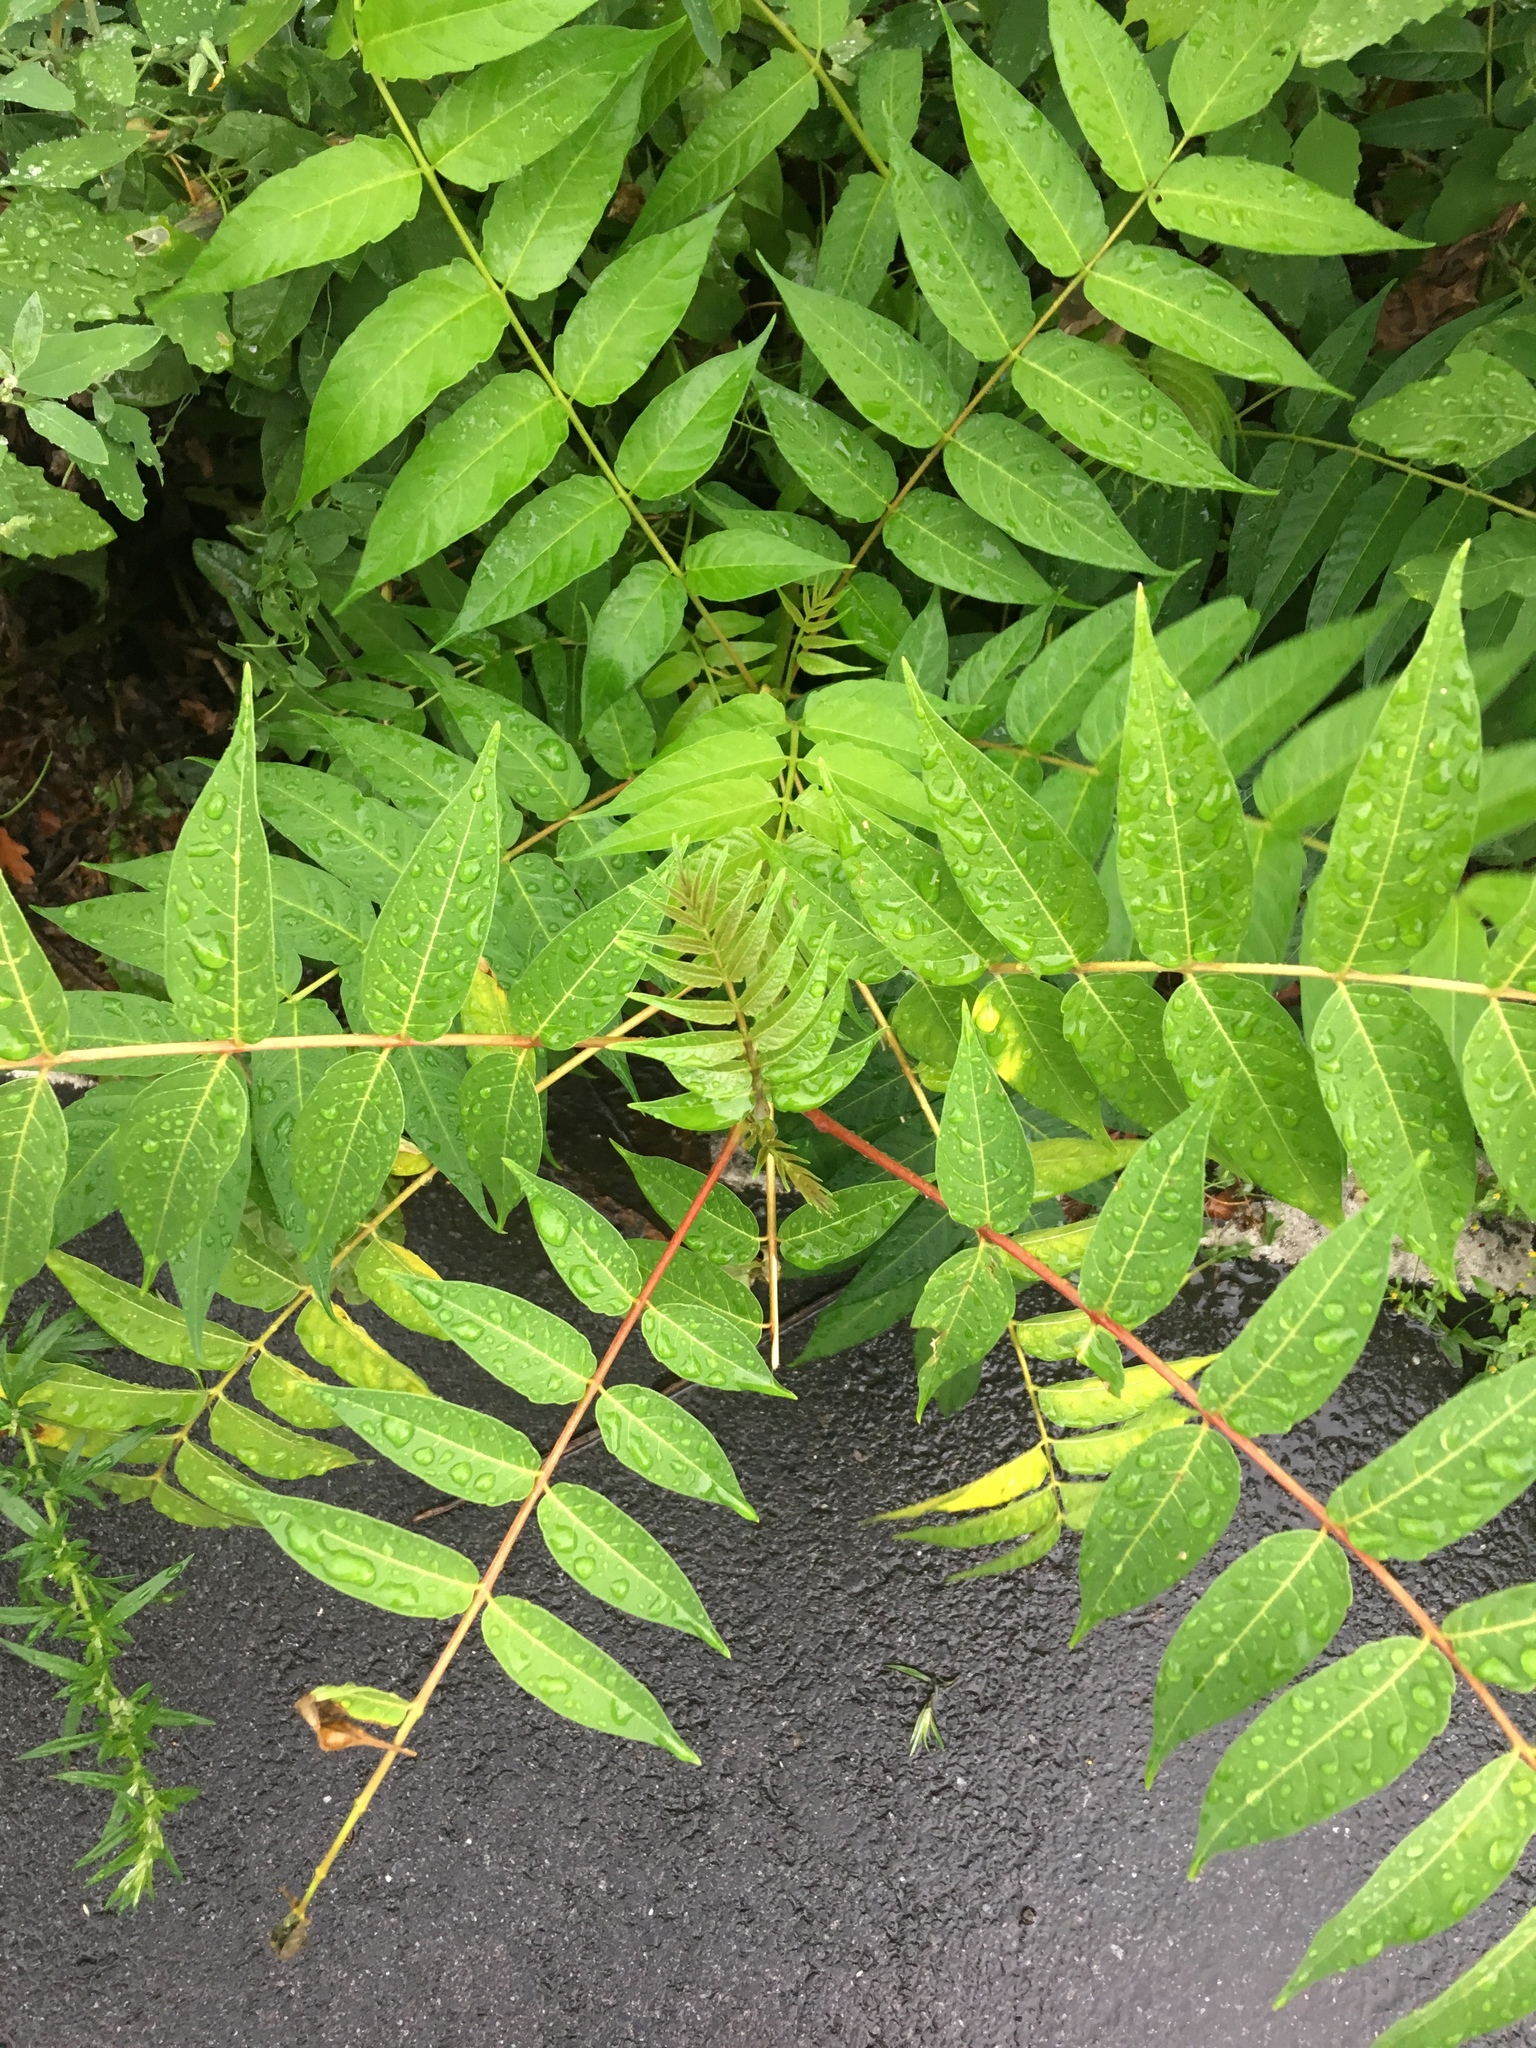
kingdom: Plantae
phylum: Tracheophyta
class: Magnoliopsida
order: Sapindales
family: Simaroubaceae
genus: Ailanthus
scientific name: Ailanthus altissima
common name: Tree-of-heaven
